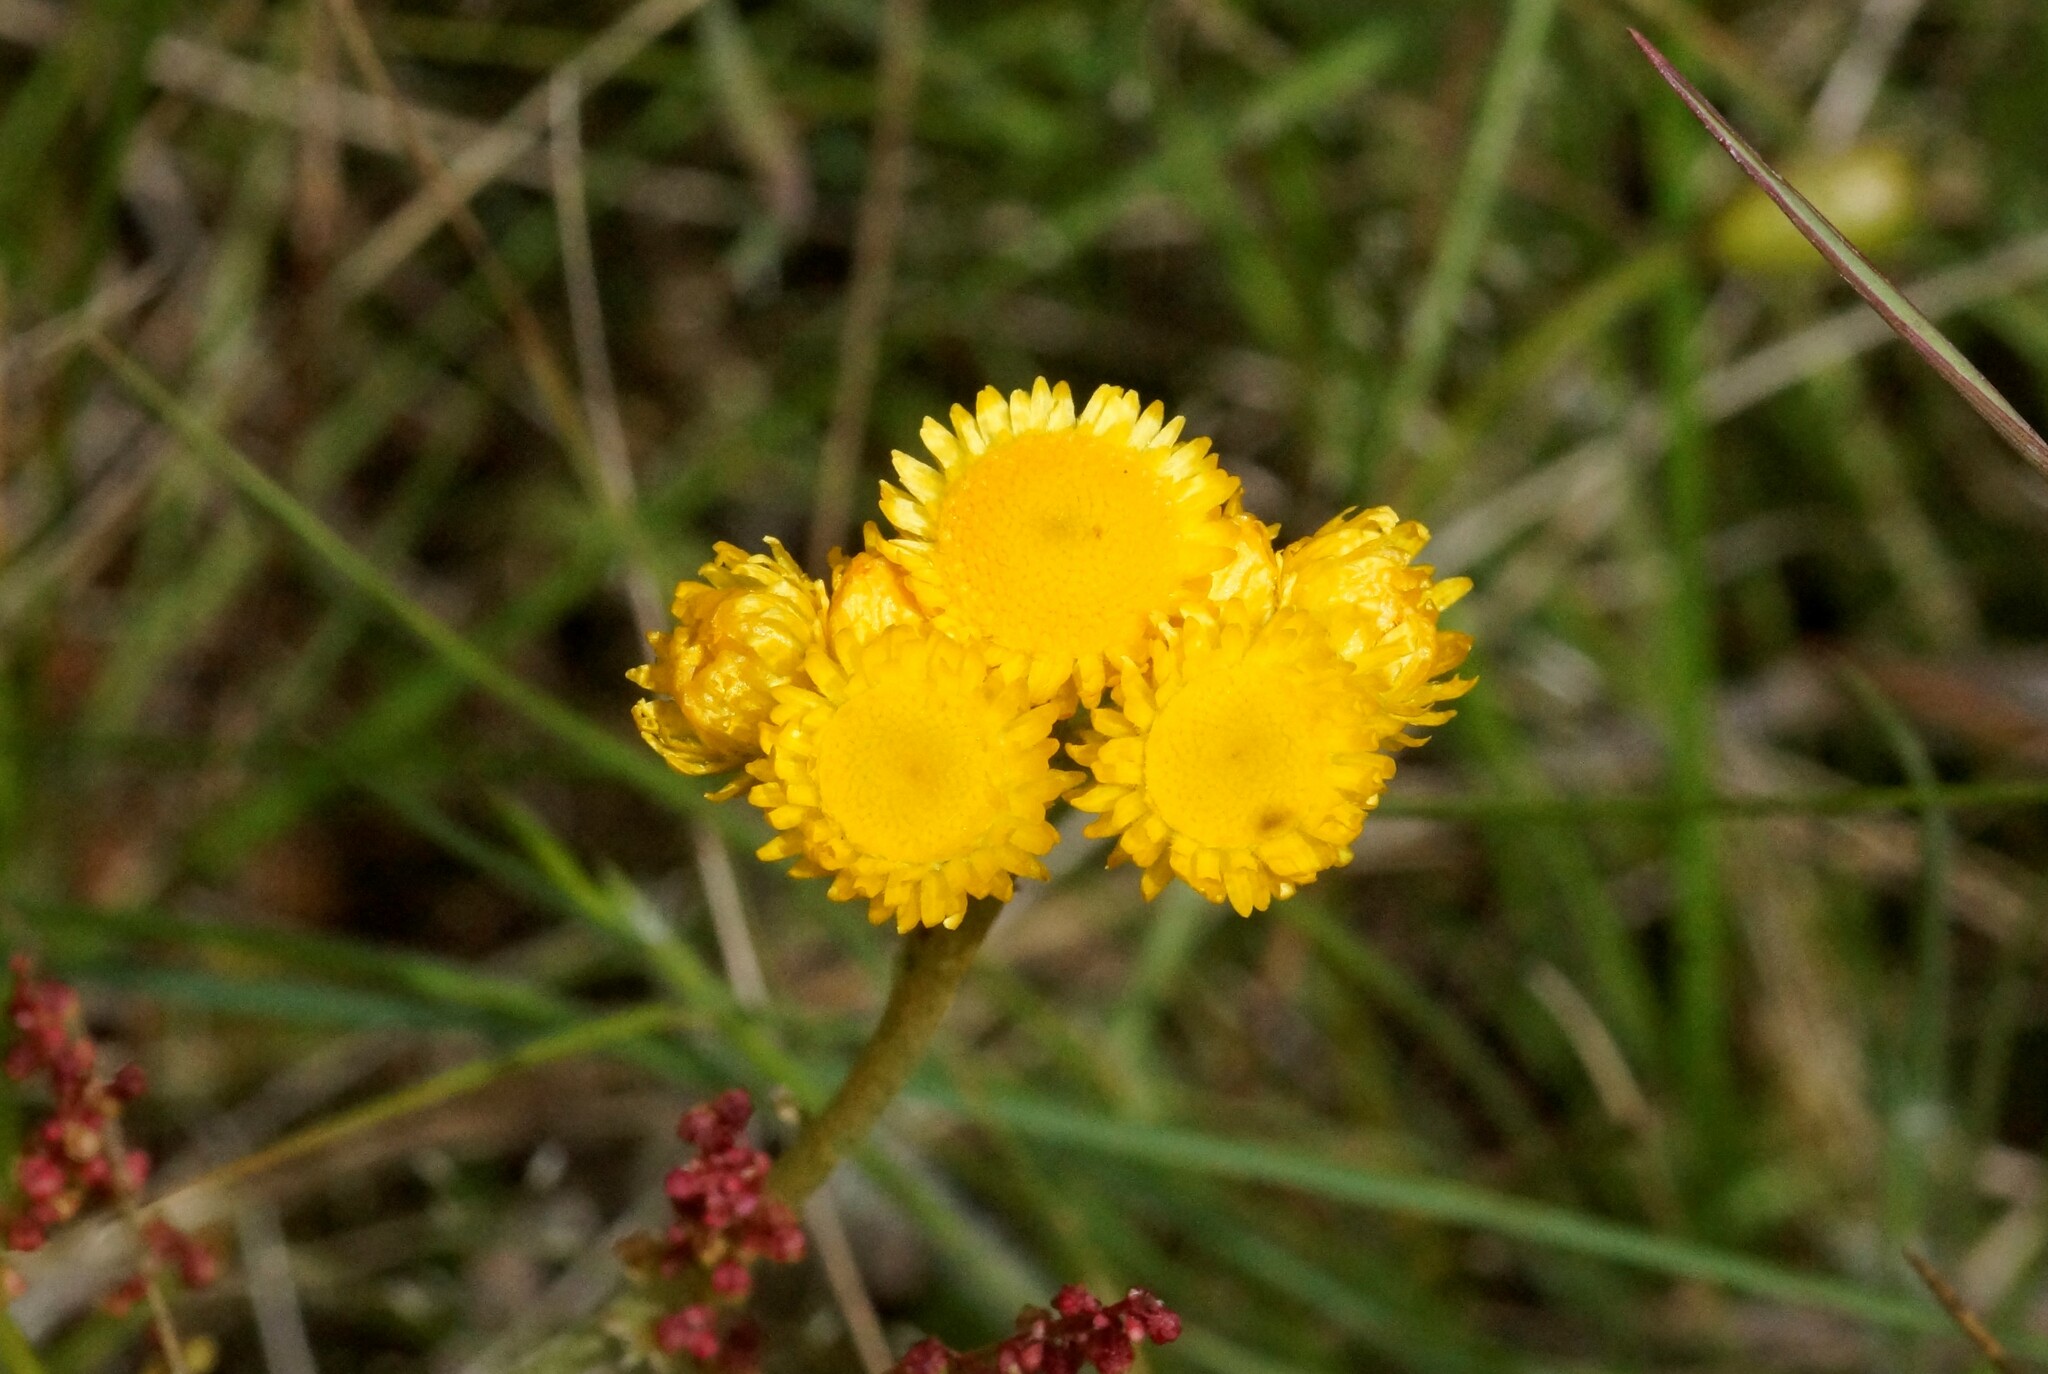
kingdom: Plantae
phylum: Tracheophyta
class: Magnoliopsida
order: Asterales
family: Asteraceae
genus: Chrysocephalum
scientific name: Chrysocephalum apiculatum
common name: Common everlasting
